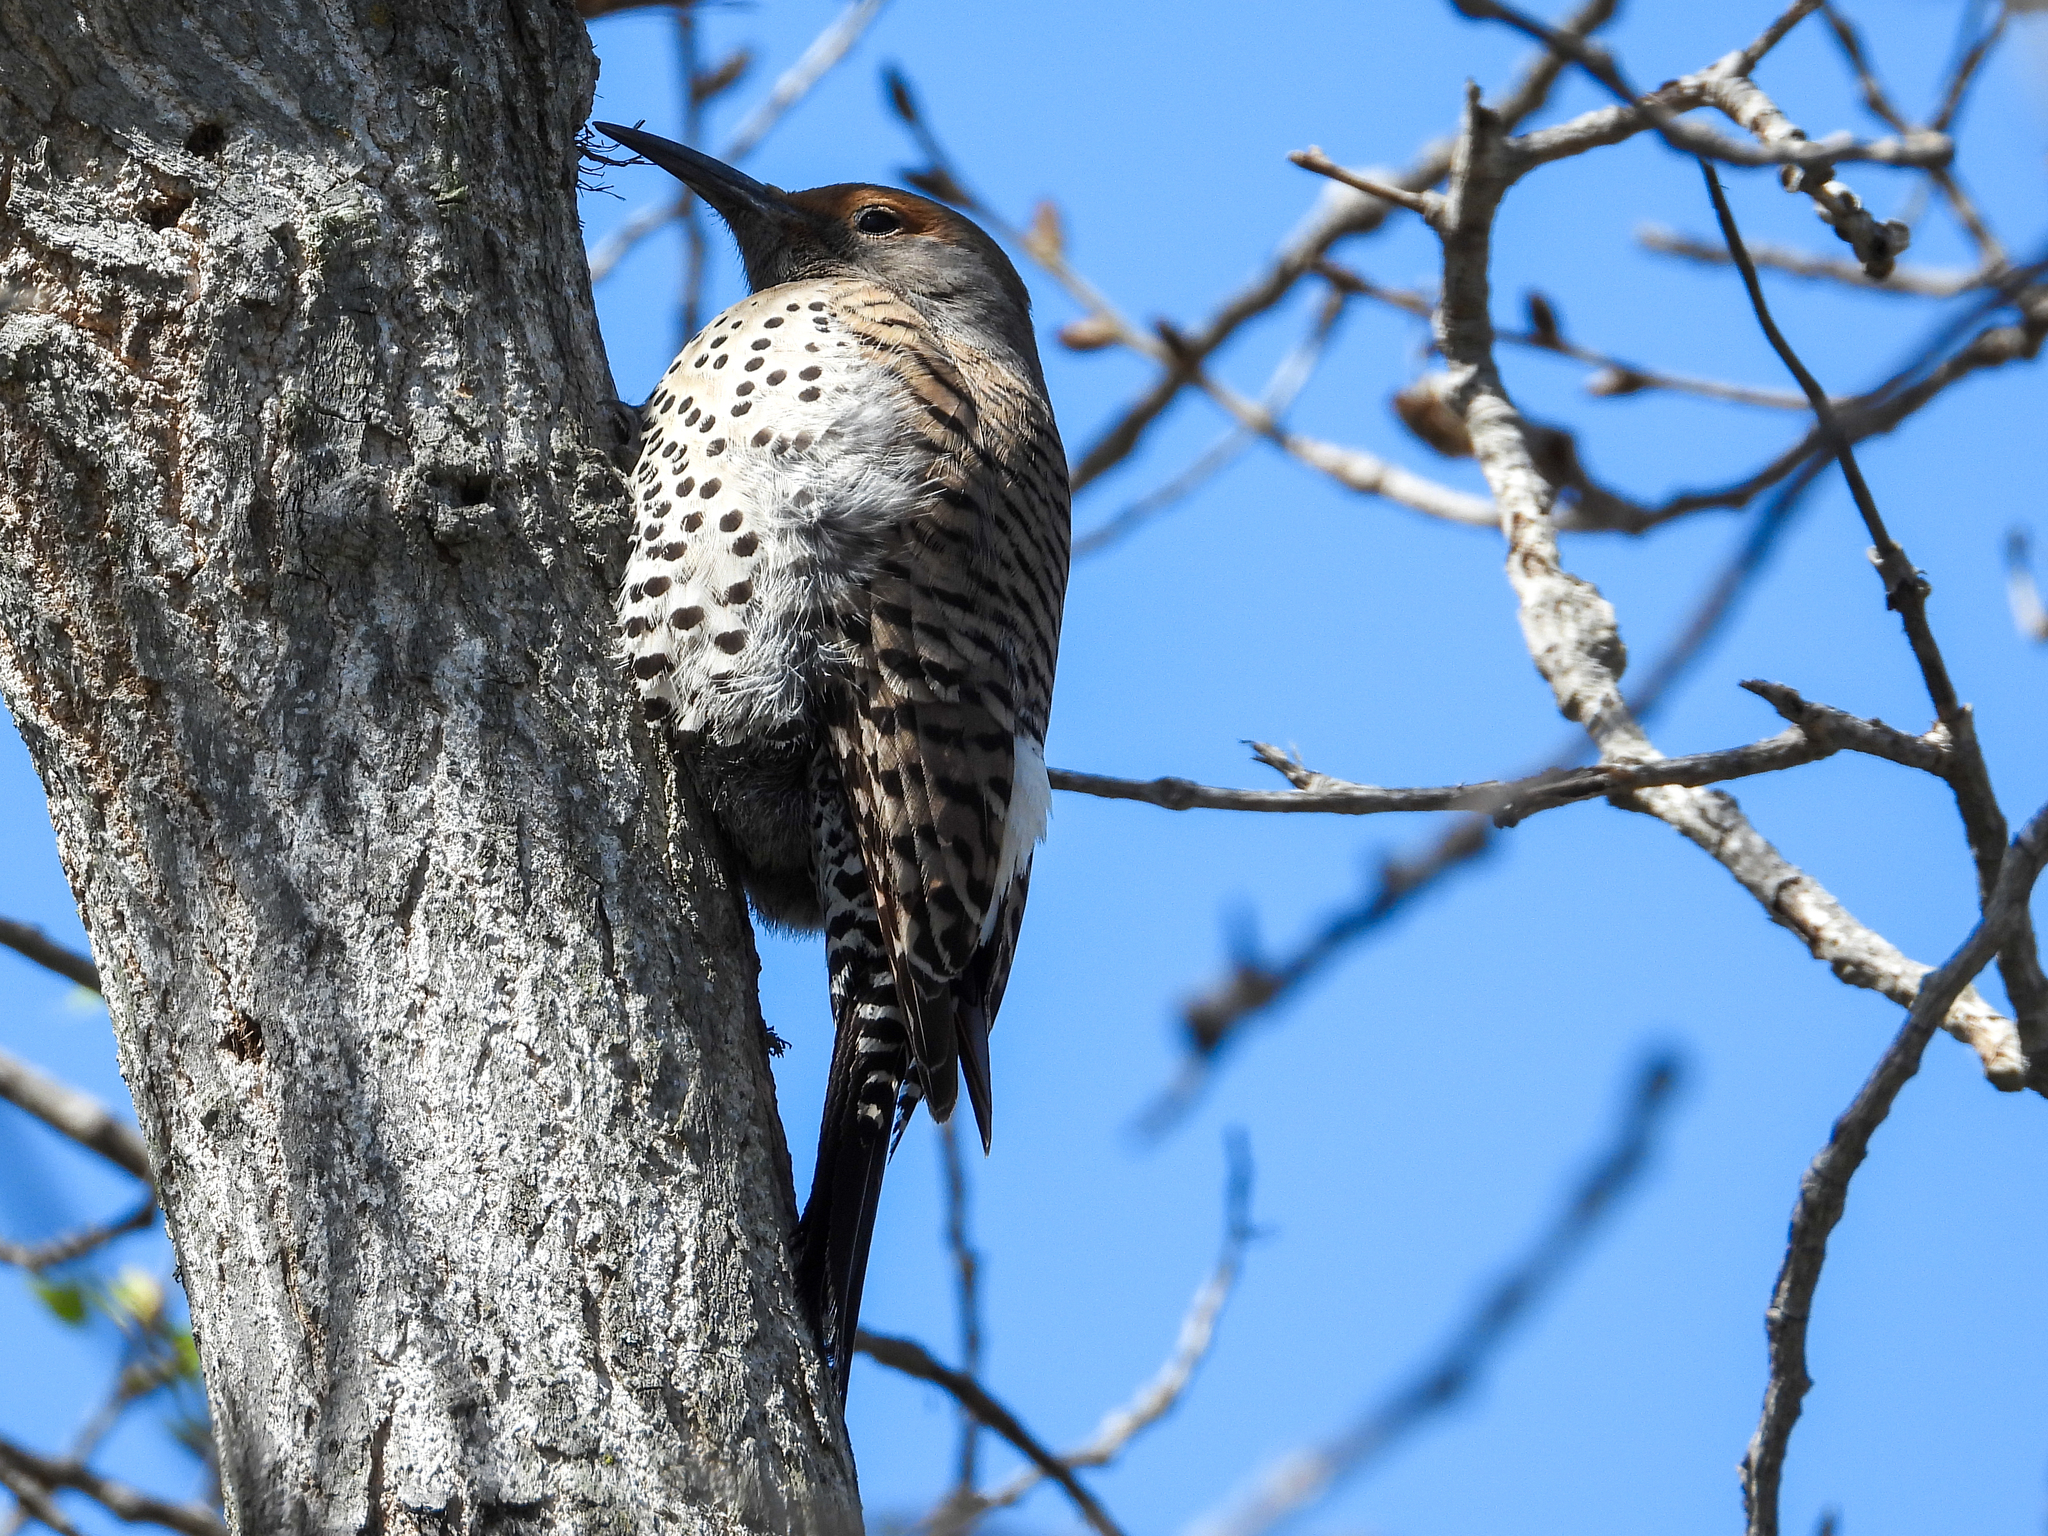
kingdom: Animalia
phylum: Chordata
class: Aves
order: Piciformes
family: Picidae
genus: Colaptes
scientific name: Colaptes auratus
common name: Northern flicker
